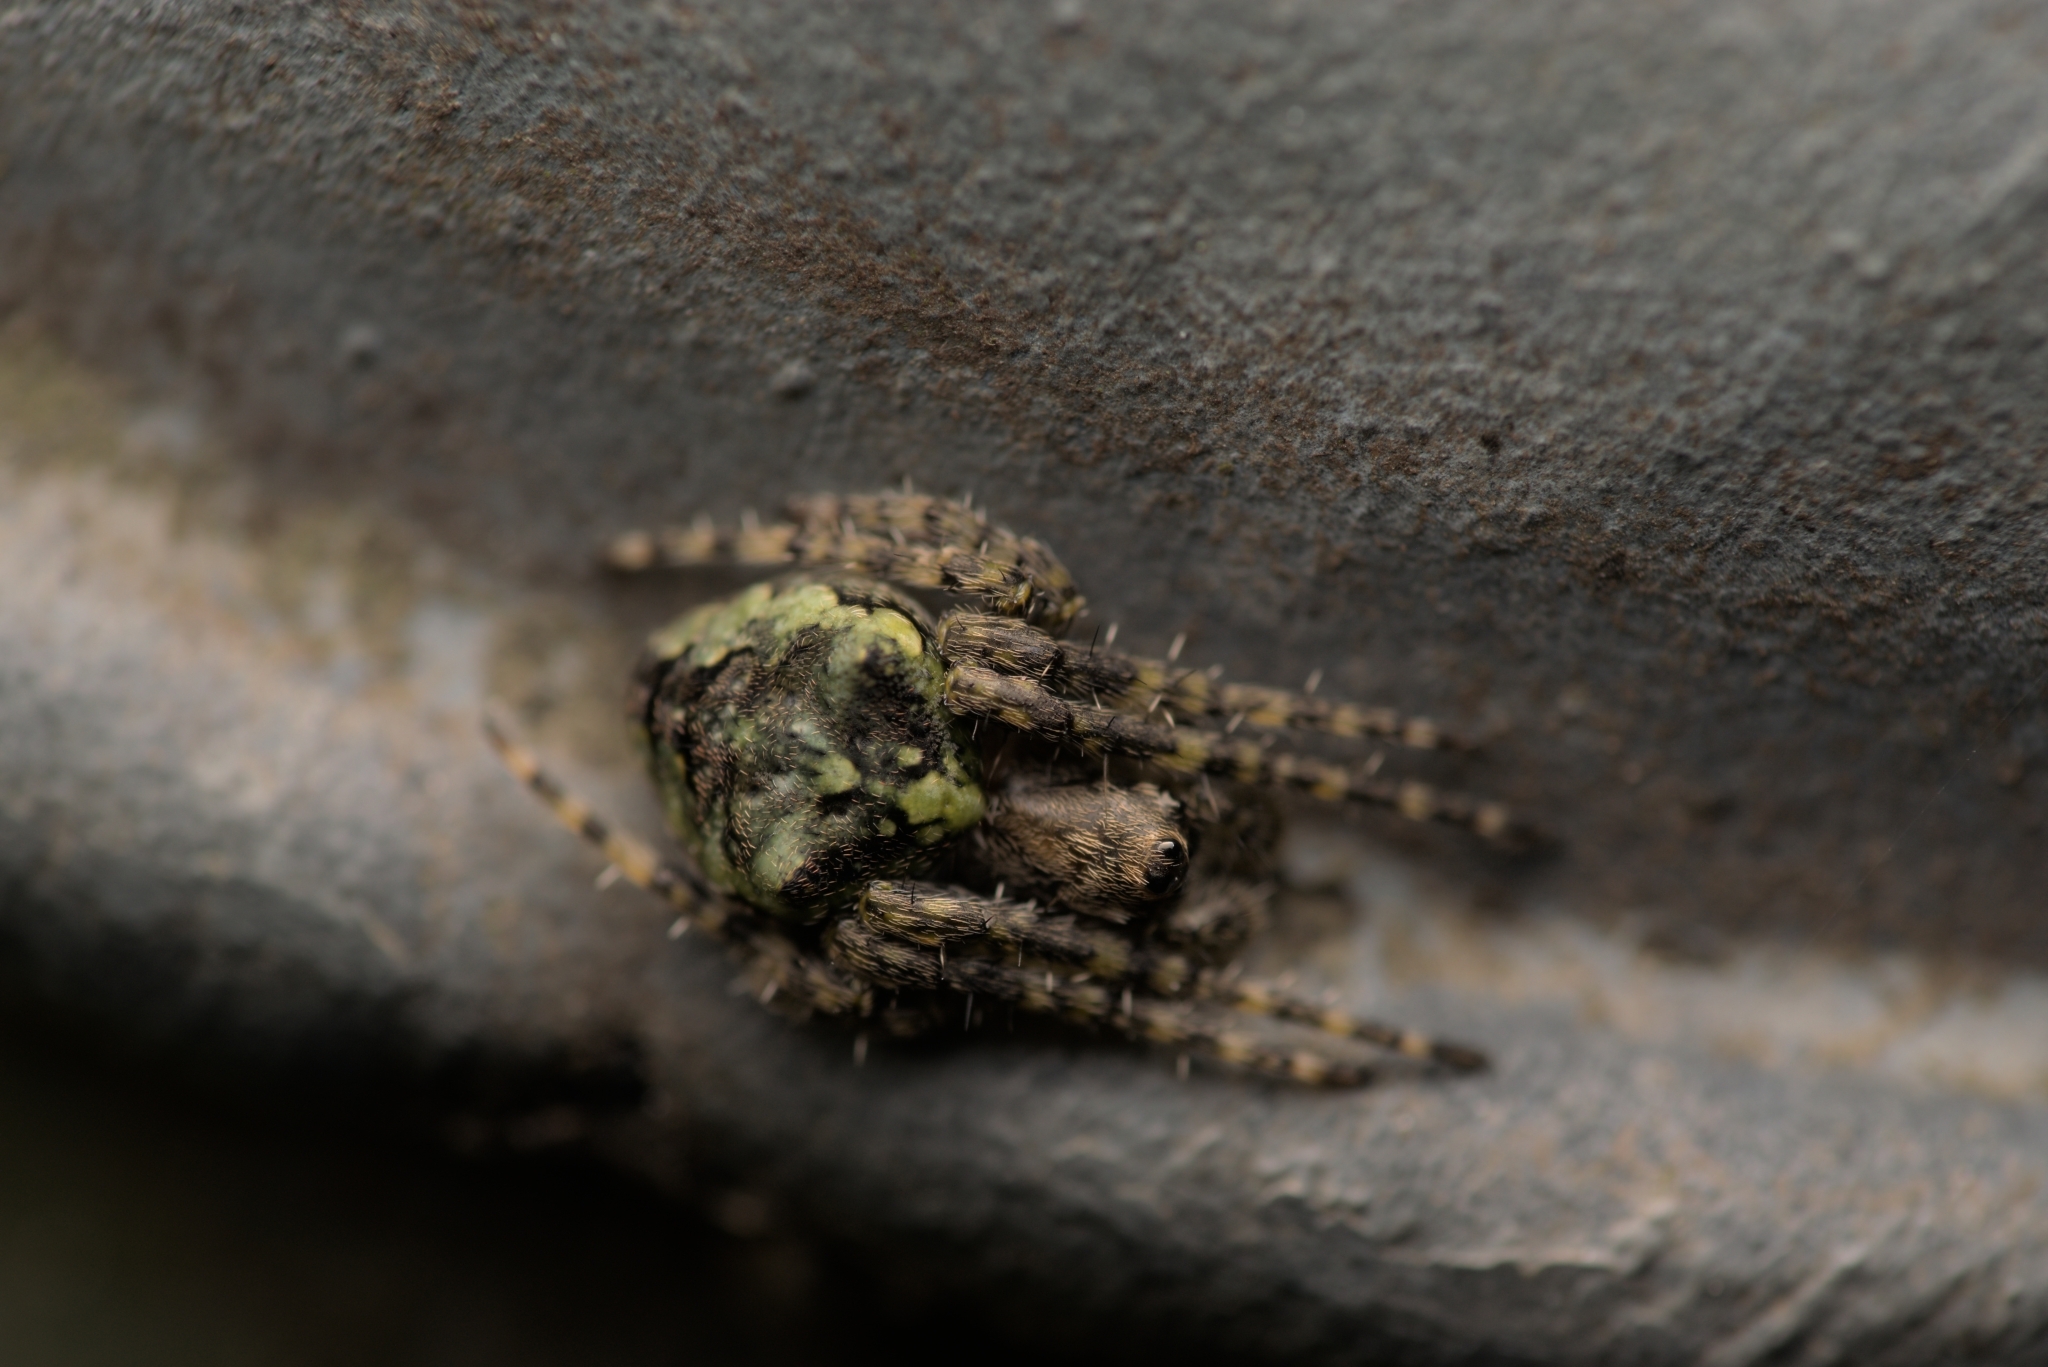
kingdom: Animalia
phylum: Arthropoda
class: Arachnida
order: Araneae
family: Araneidae
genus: Gibbaranea
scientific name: Gibbaranea gibbosa
